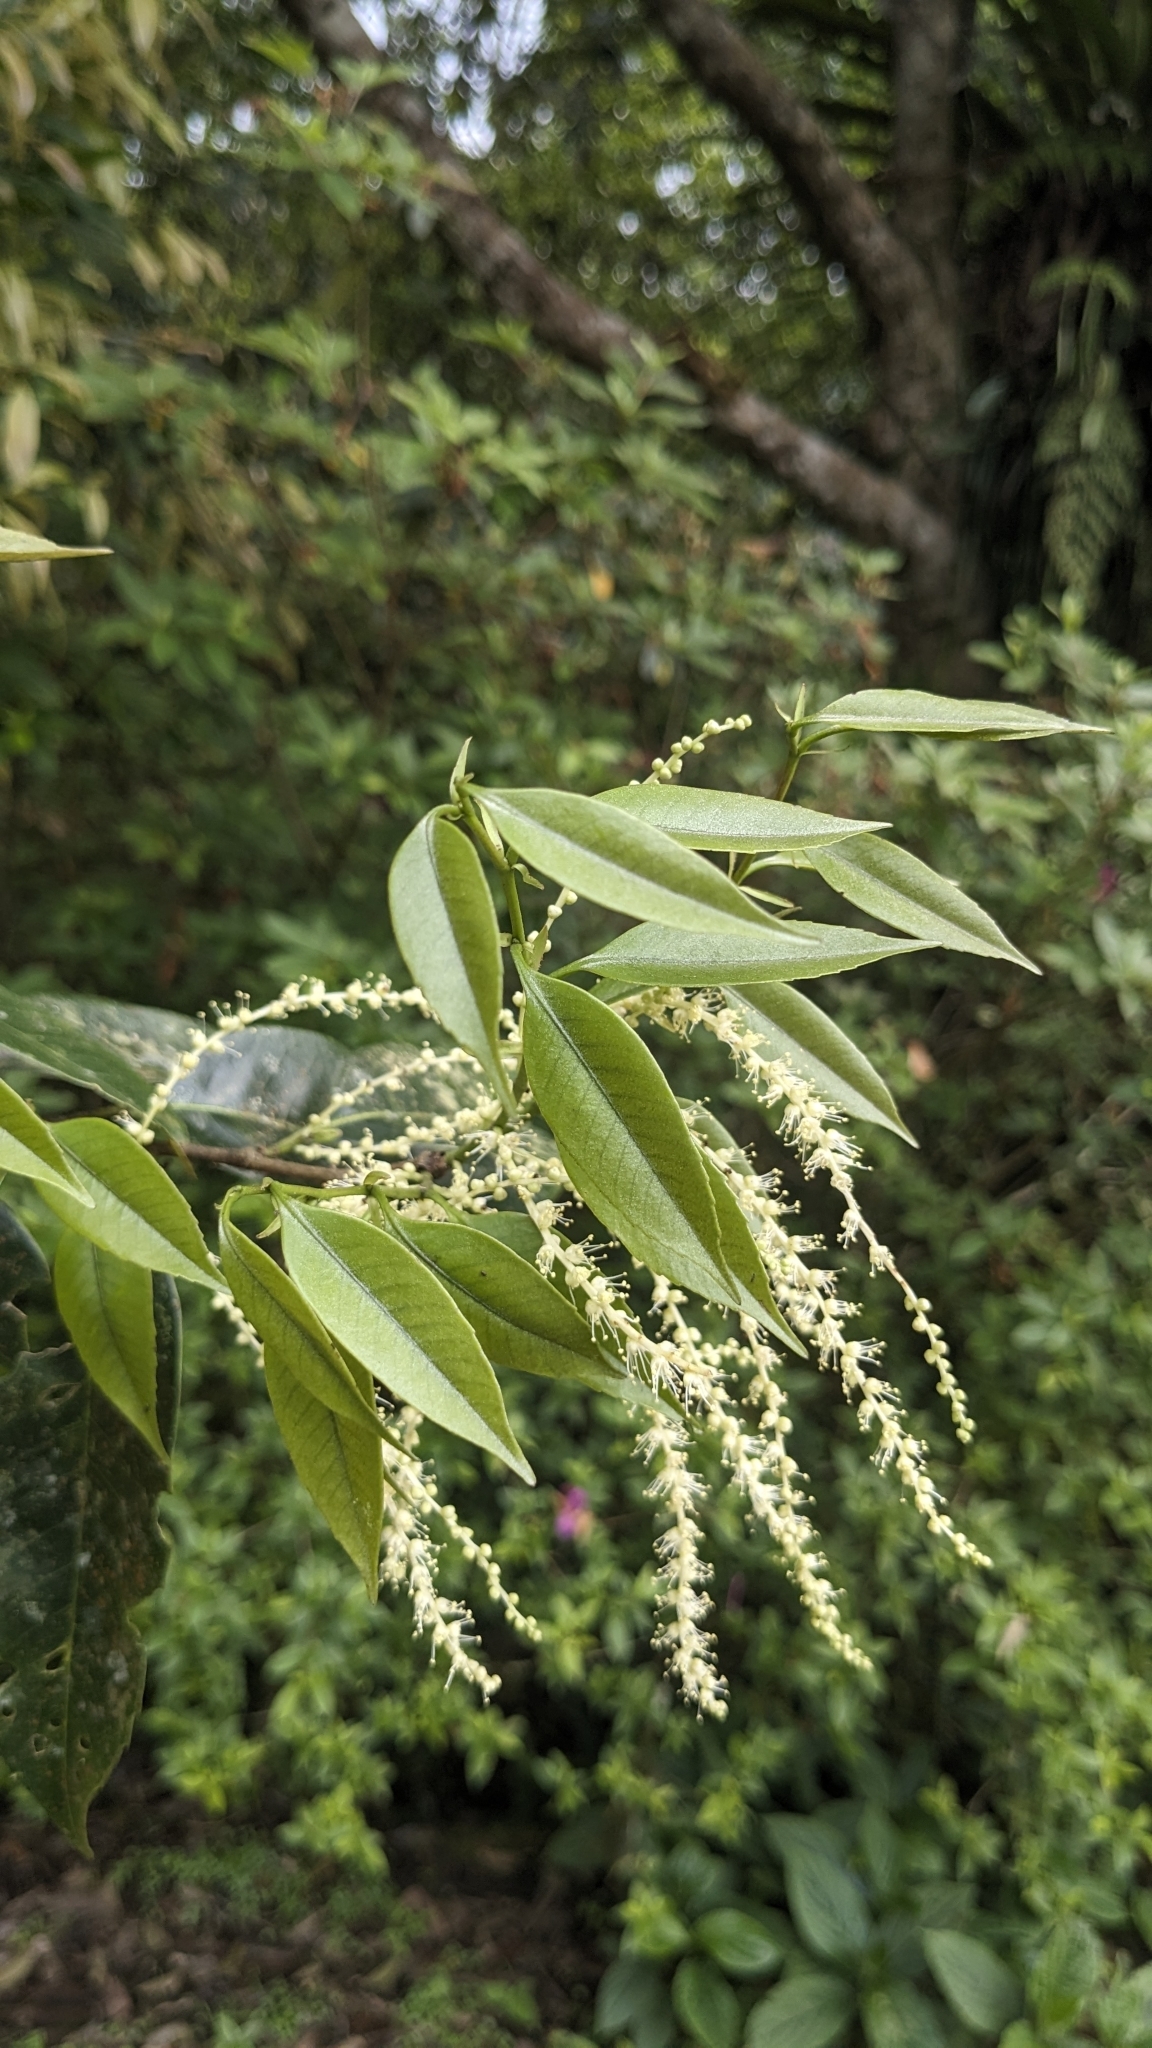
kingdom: Plantae
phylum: Tracheophyta
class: Magnoliopsida
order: Fagales
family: Fagaceae
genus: Castanopsis
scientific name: Castanopsis carlesii
